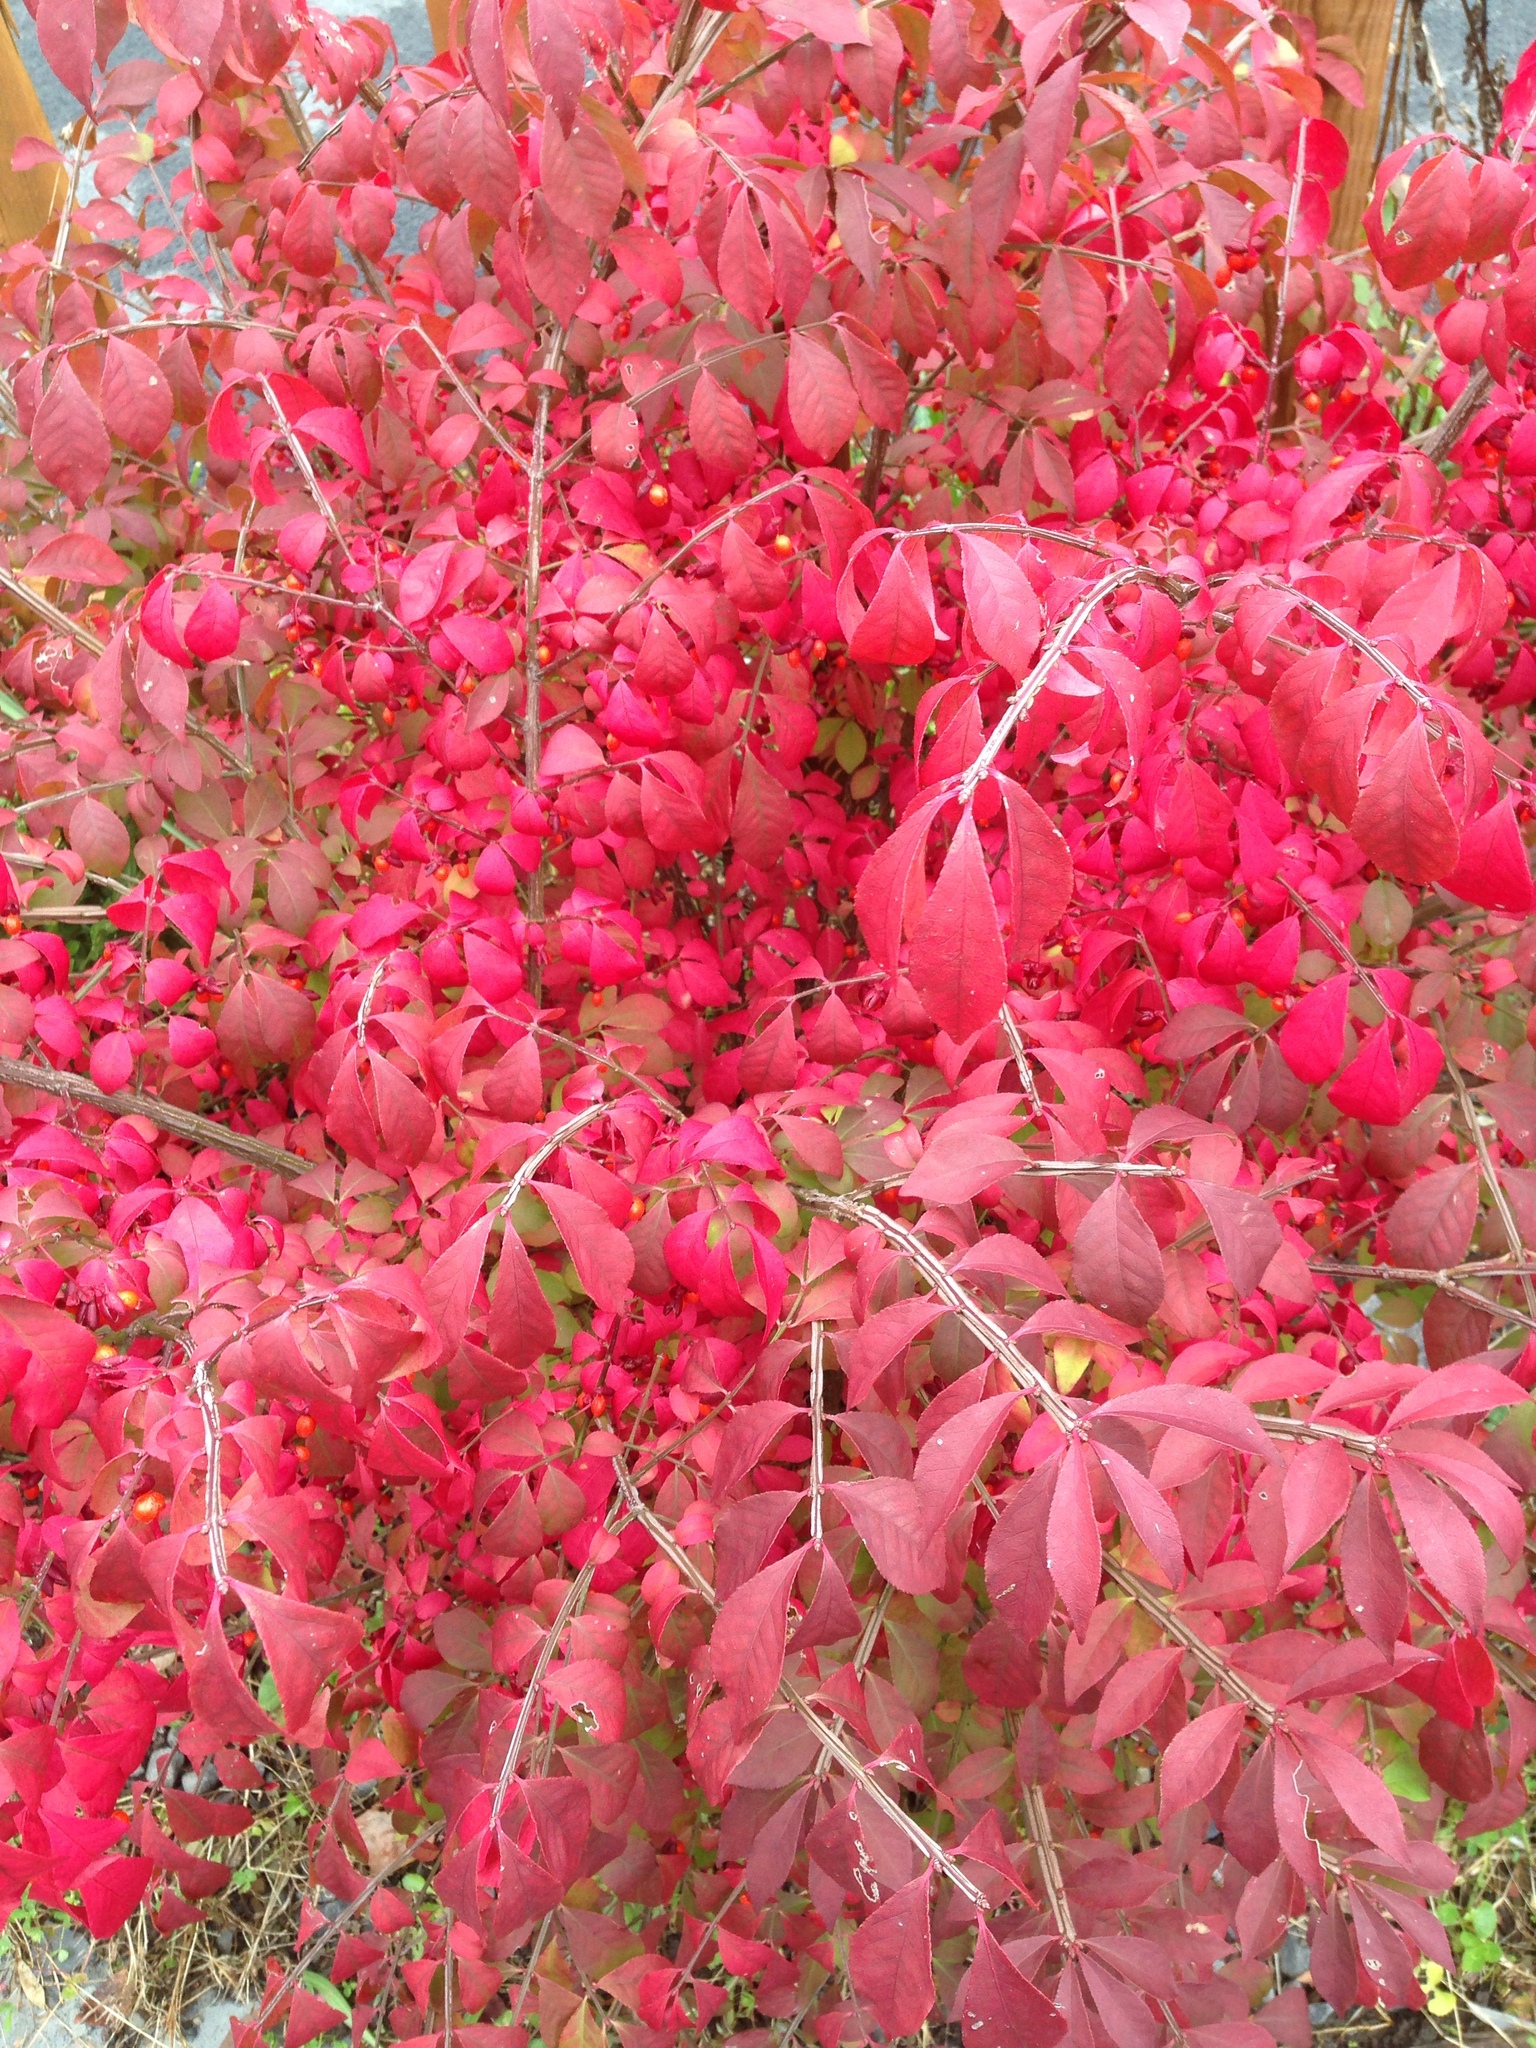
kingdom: Plantae
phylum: Tracheophyta
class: Magnoliopsida
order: Celastrales
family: Celastraceae
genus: Euonymus
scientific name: Euonymus alatus
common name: Winged euonymus
